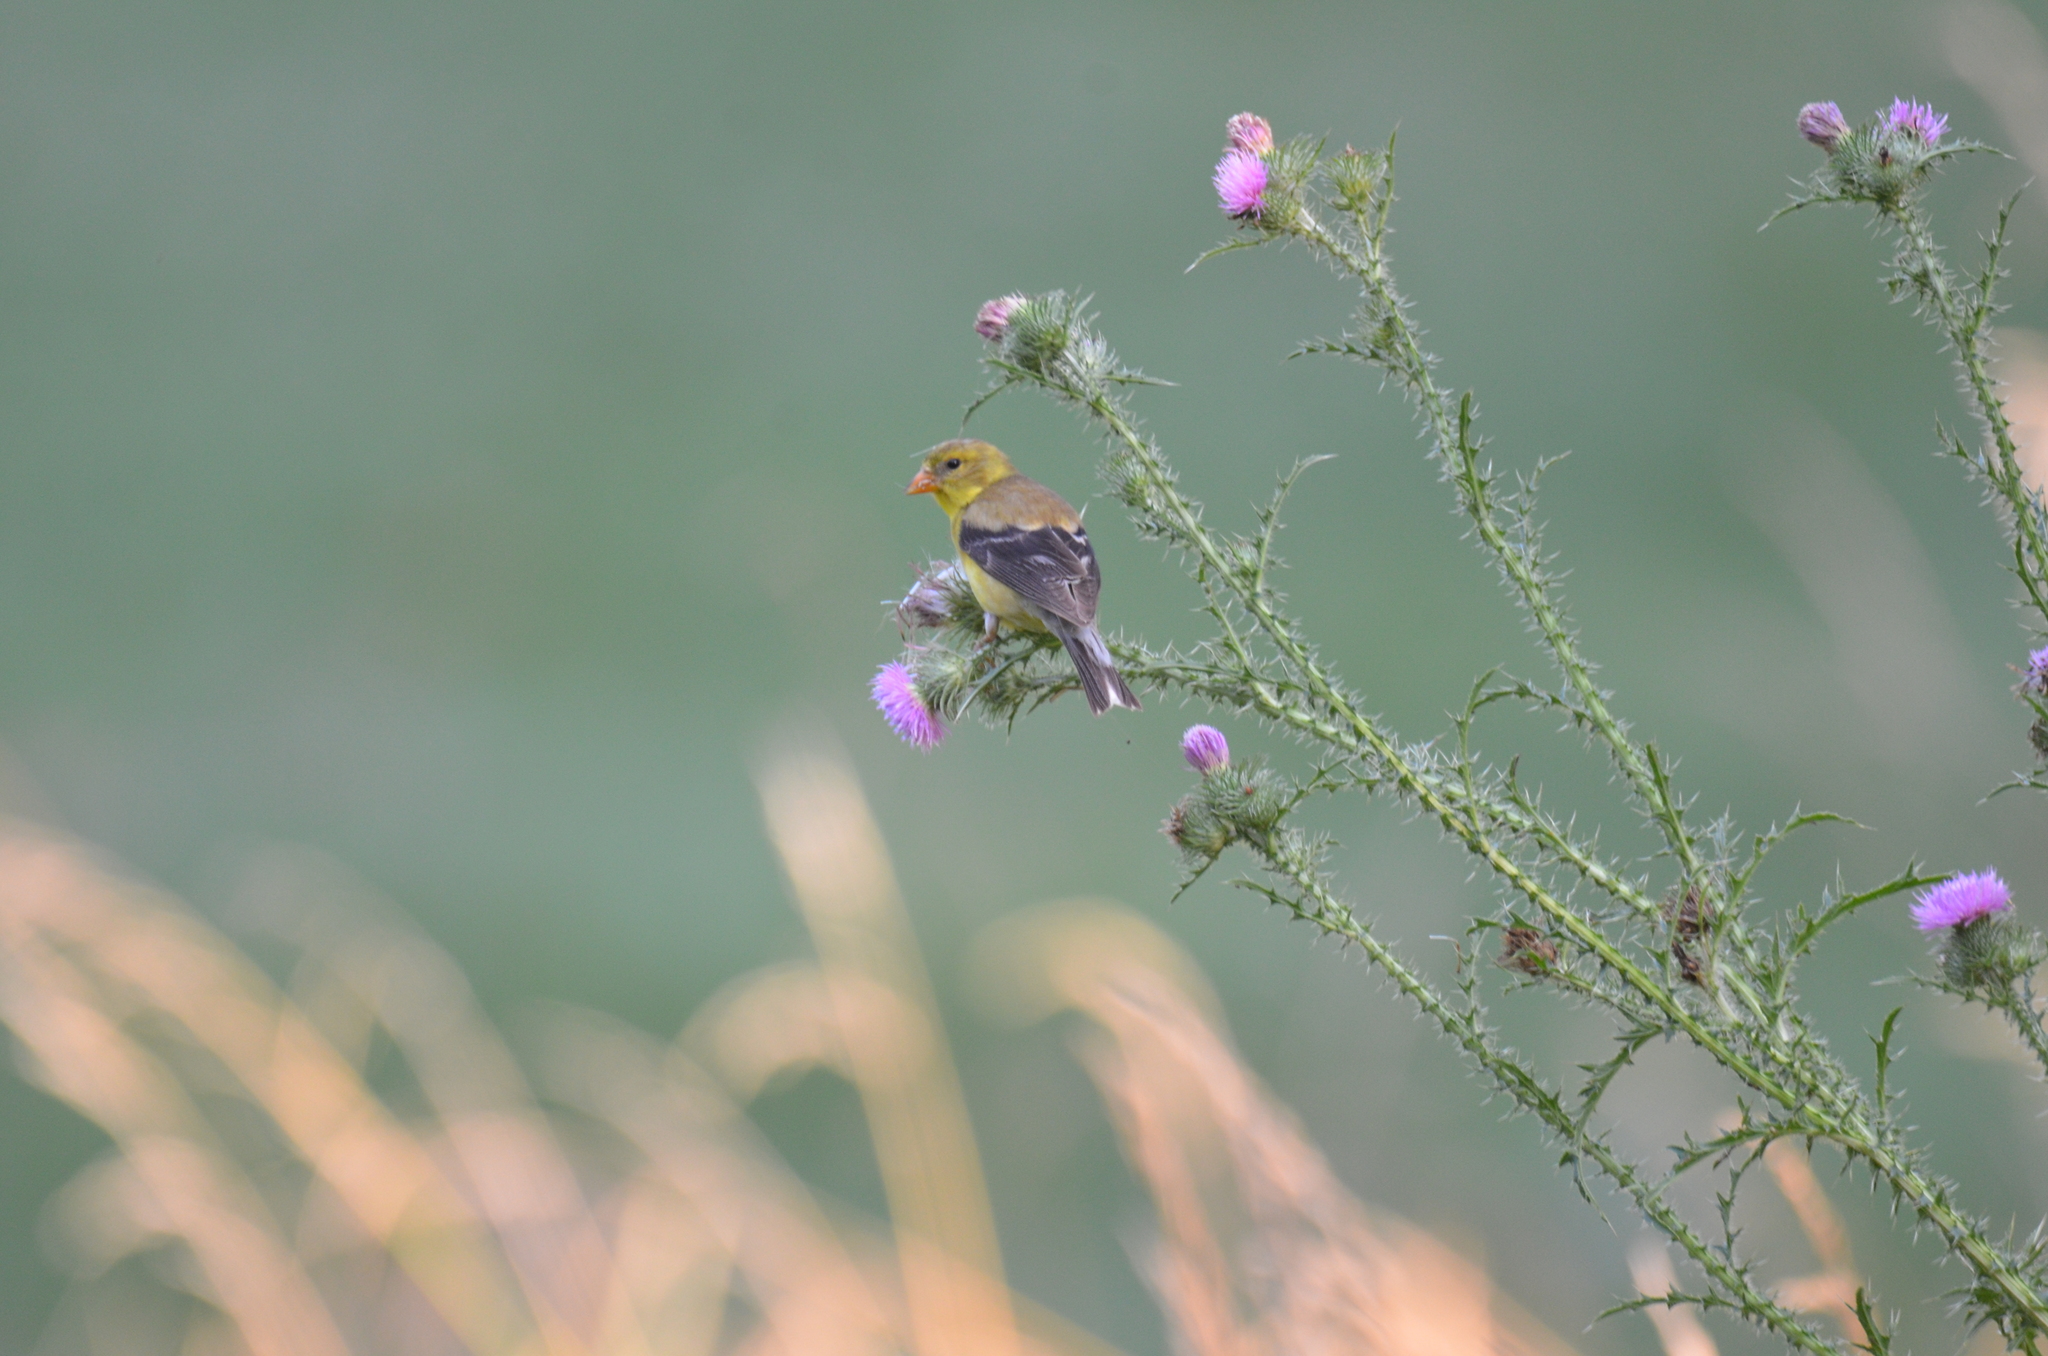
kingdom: Animalia
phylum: Chordata
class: Aves
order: Passeriformes
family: Fringillidae
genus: Spinus
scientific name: Spinus tristis
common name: American goldfinch
